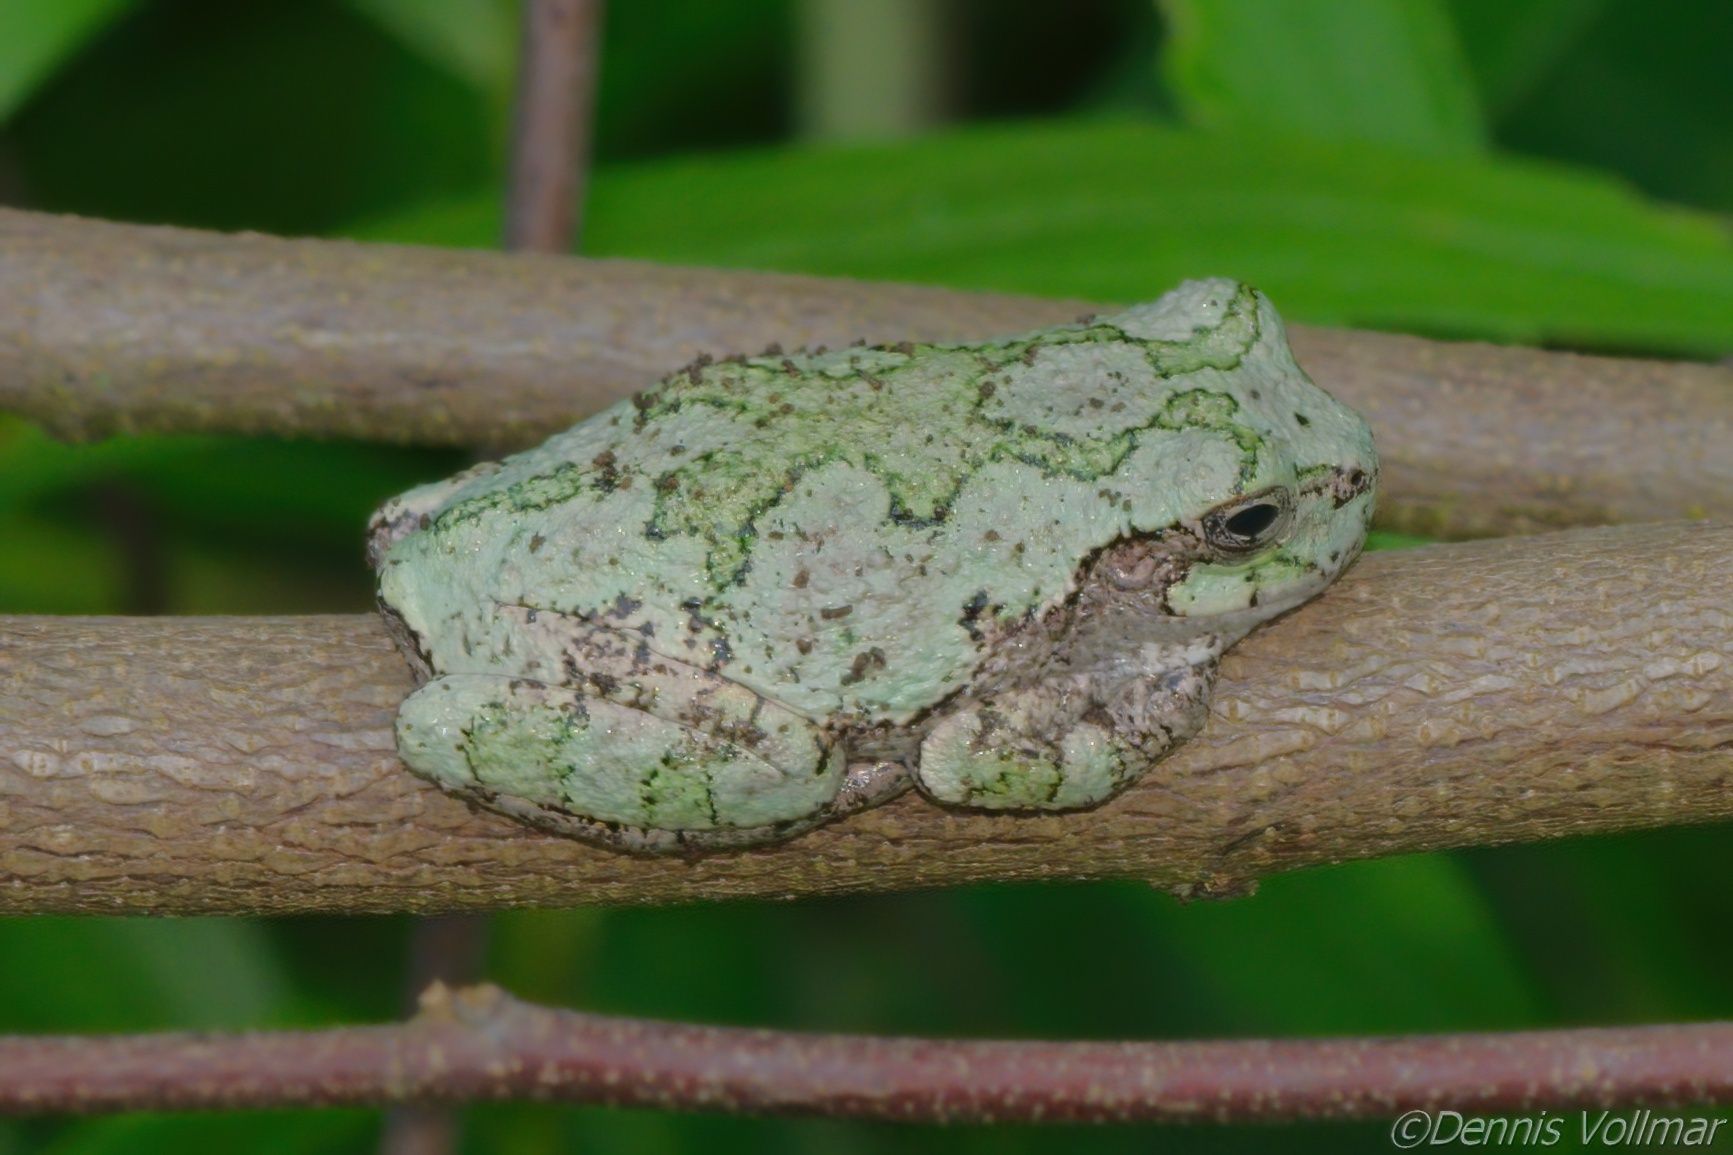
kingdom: Animalia
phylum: Chordata
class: Amphibia
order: Anura
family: Hylidae
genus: Dryophytes
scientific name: Dryophytes versicolor
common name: Gray treefrog
